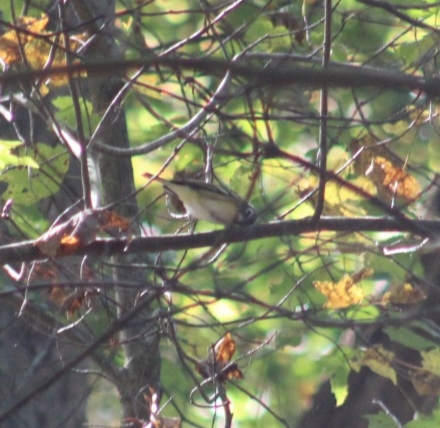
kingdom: Animalia
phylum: Chordata
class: Aves
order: Passeriformes
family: Vireonidae
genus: Vireo
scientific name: Vireo solitarius
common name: Blue-headed vireo
